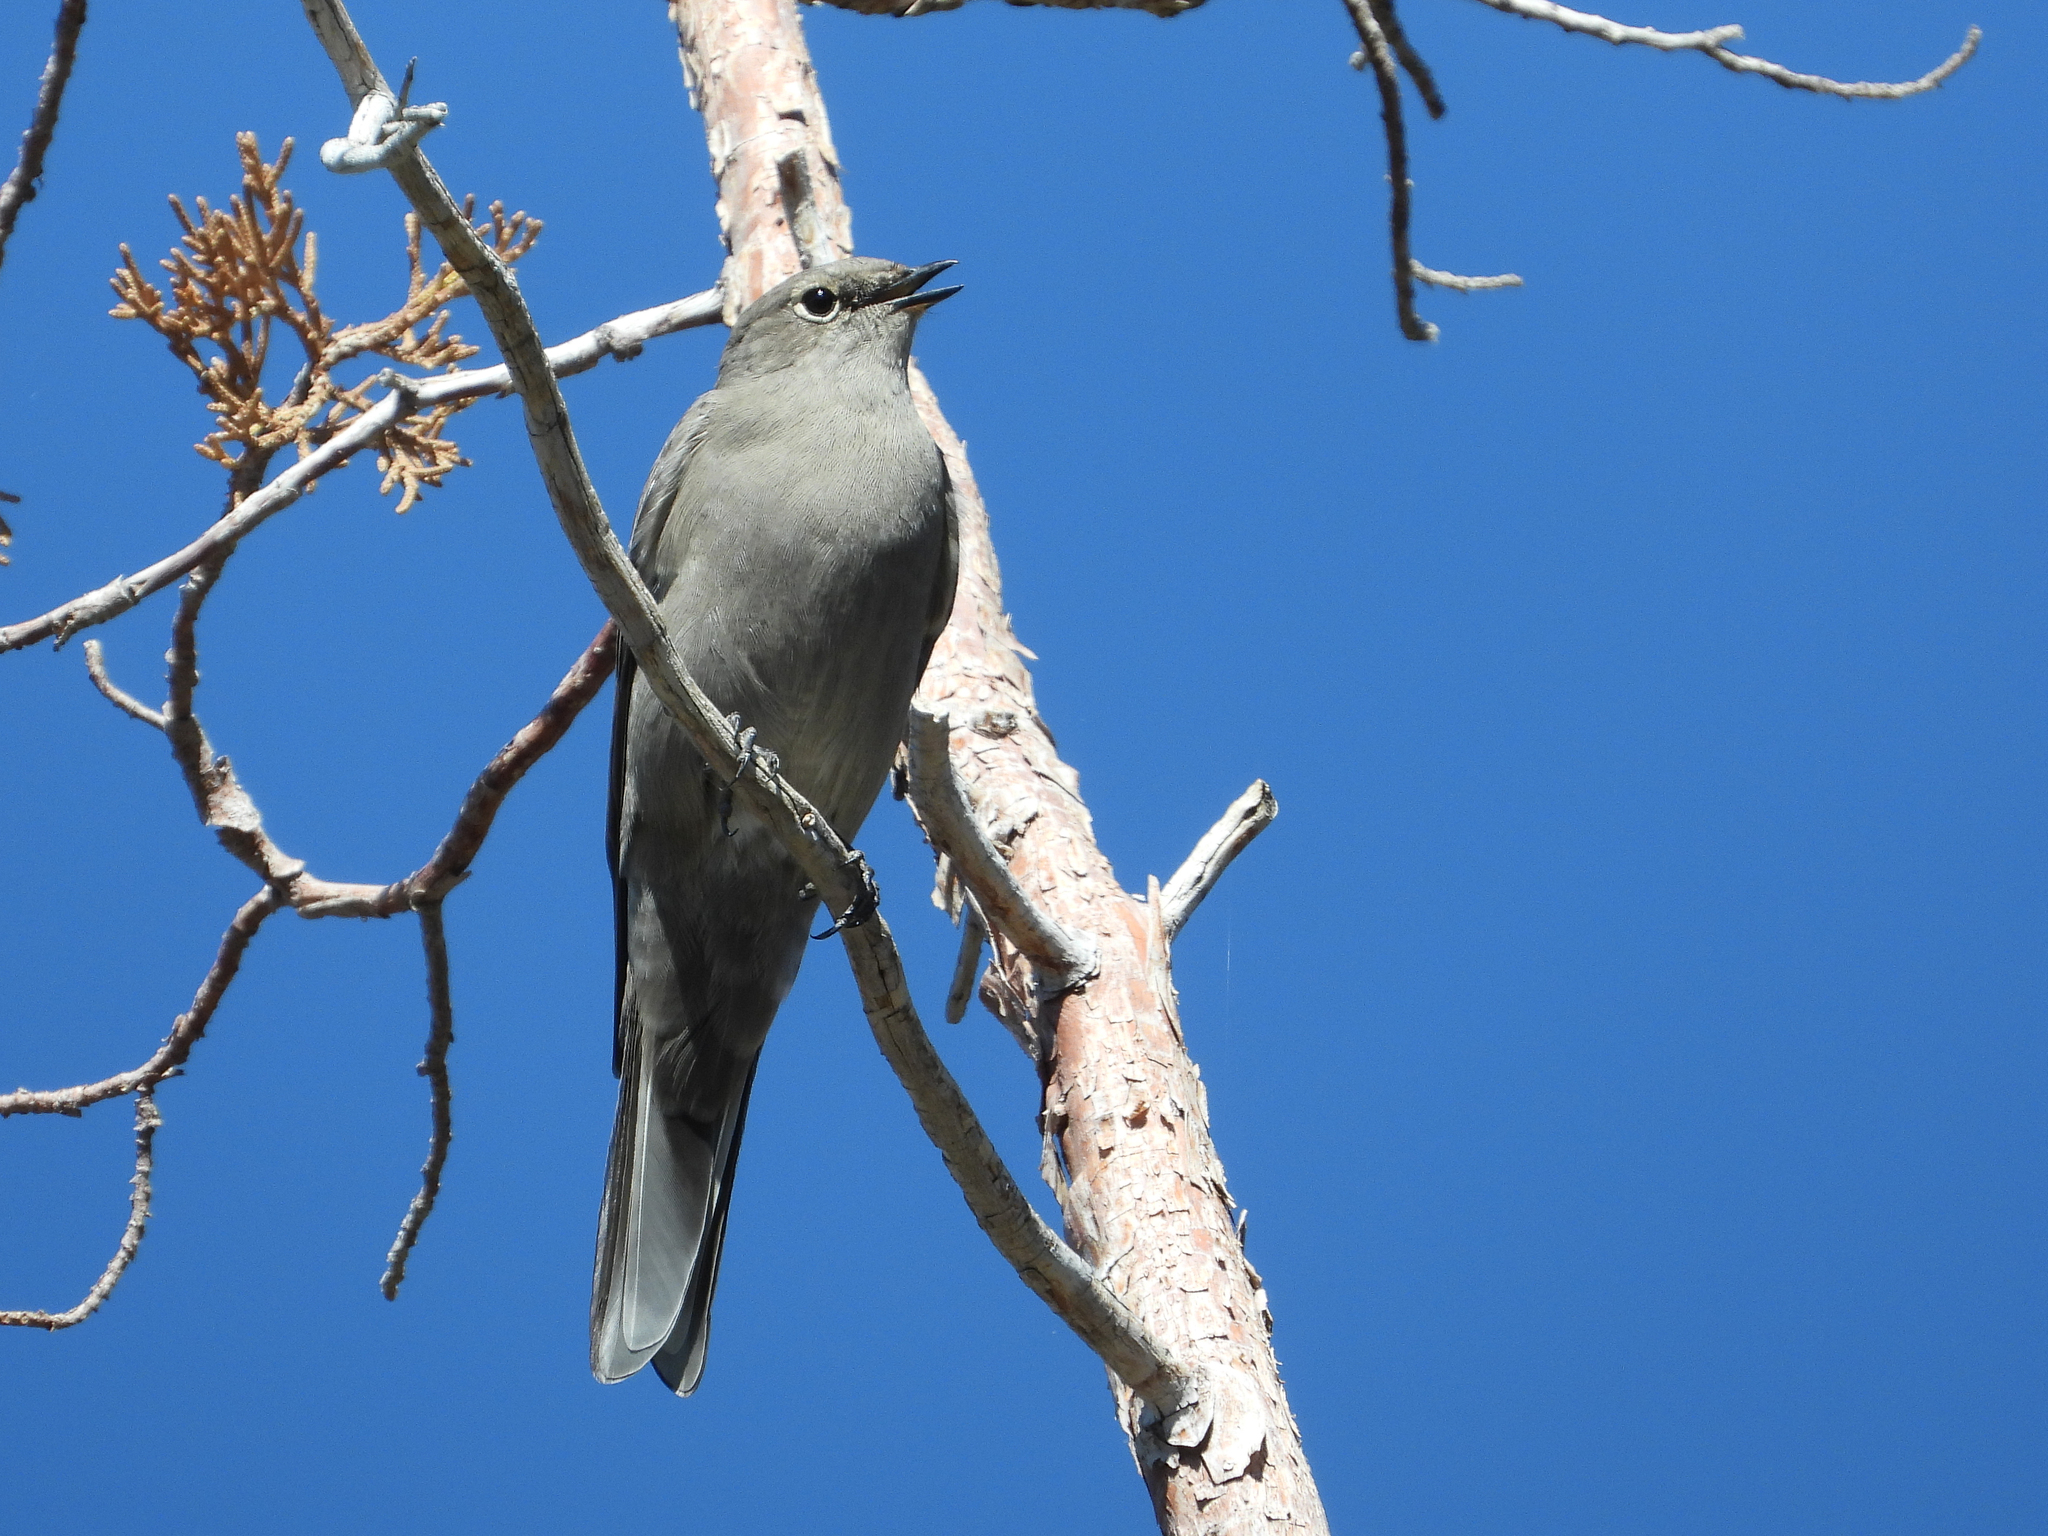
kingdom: Animalia
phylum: Chordata
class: Aves
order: Passeriformes
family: Turdidae
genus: Myadestes
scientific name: Myadestes townsendi
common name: Townsend's solitaire
